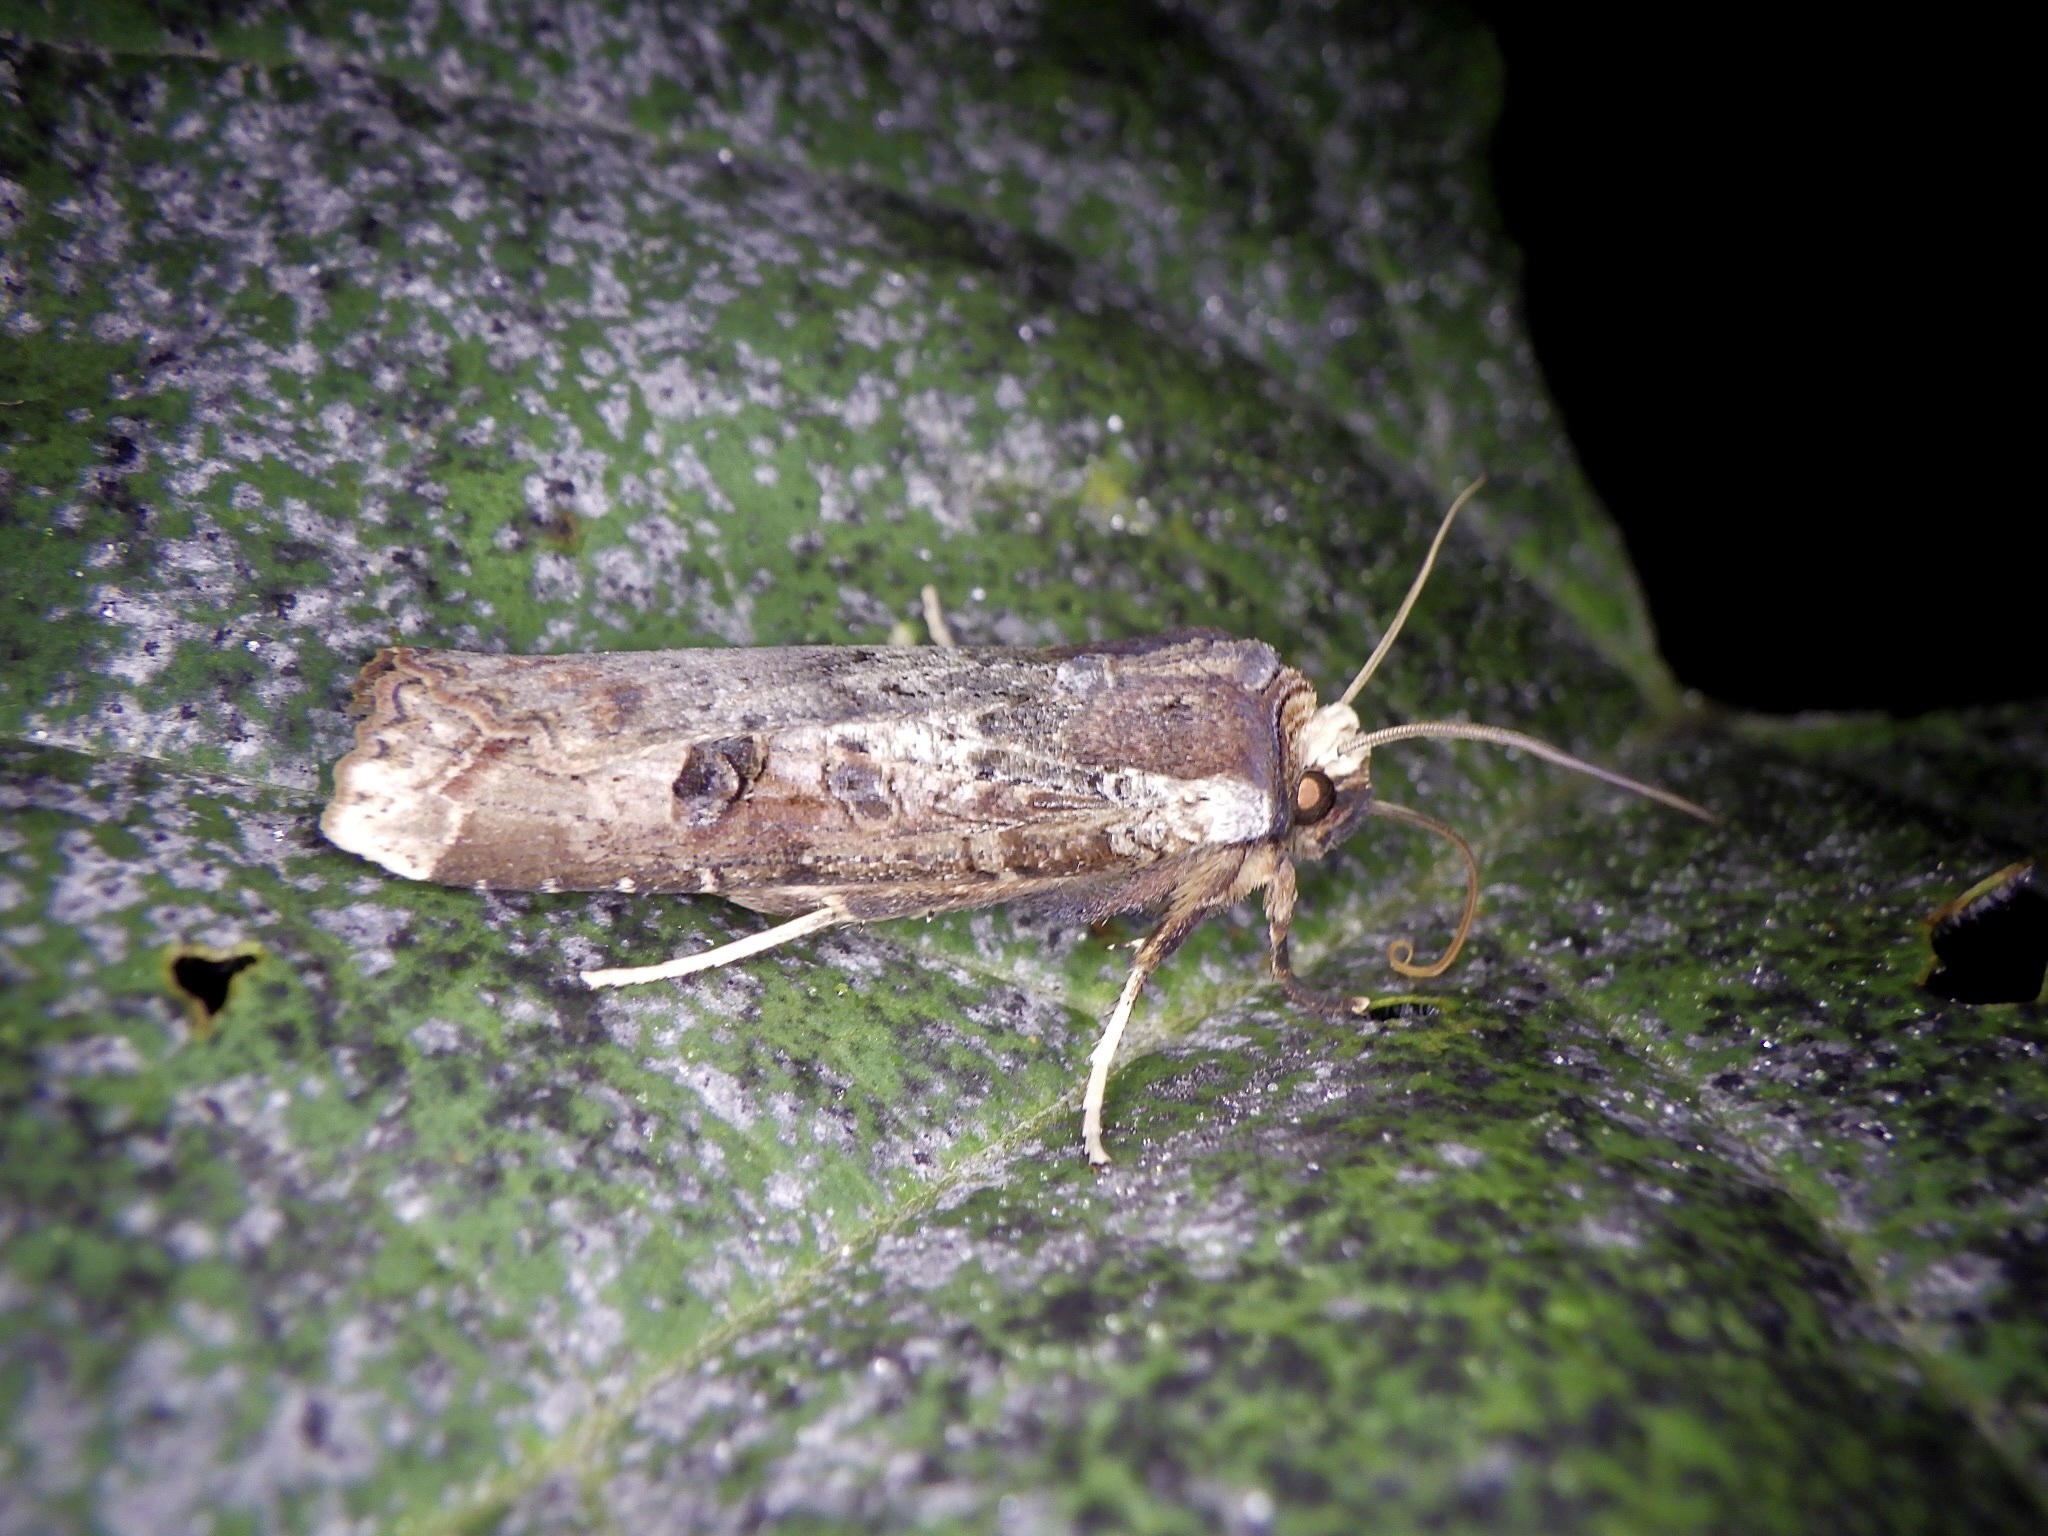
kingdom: Animalia
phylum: Arthropoda
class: Insecta
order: Lepidoptera
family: Noctuidae
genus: Xylena
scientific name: Xylena formosa
